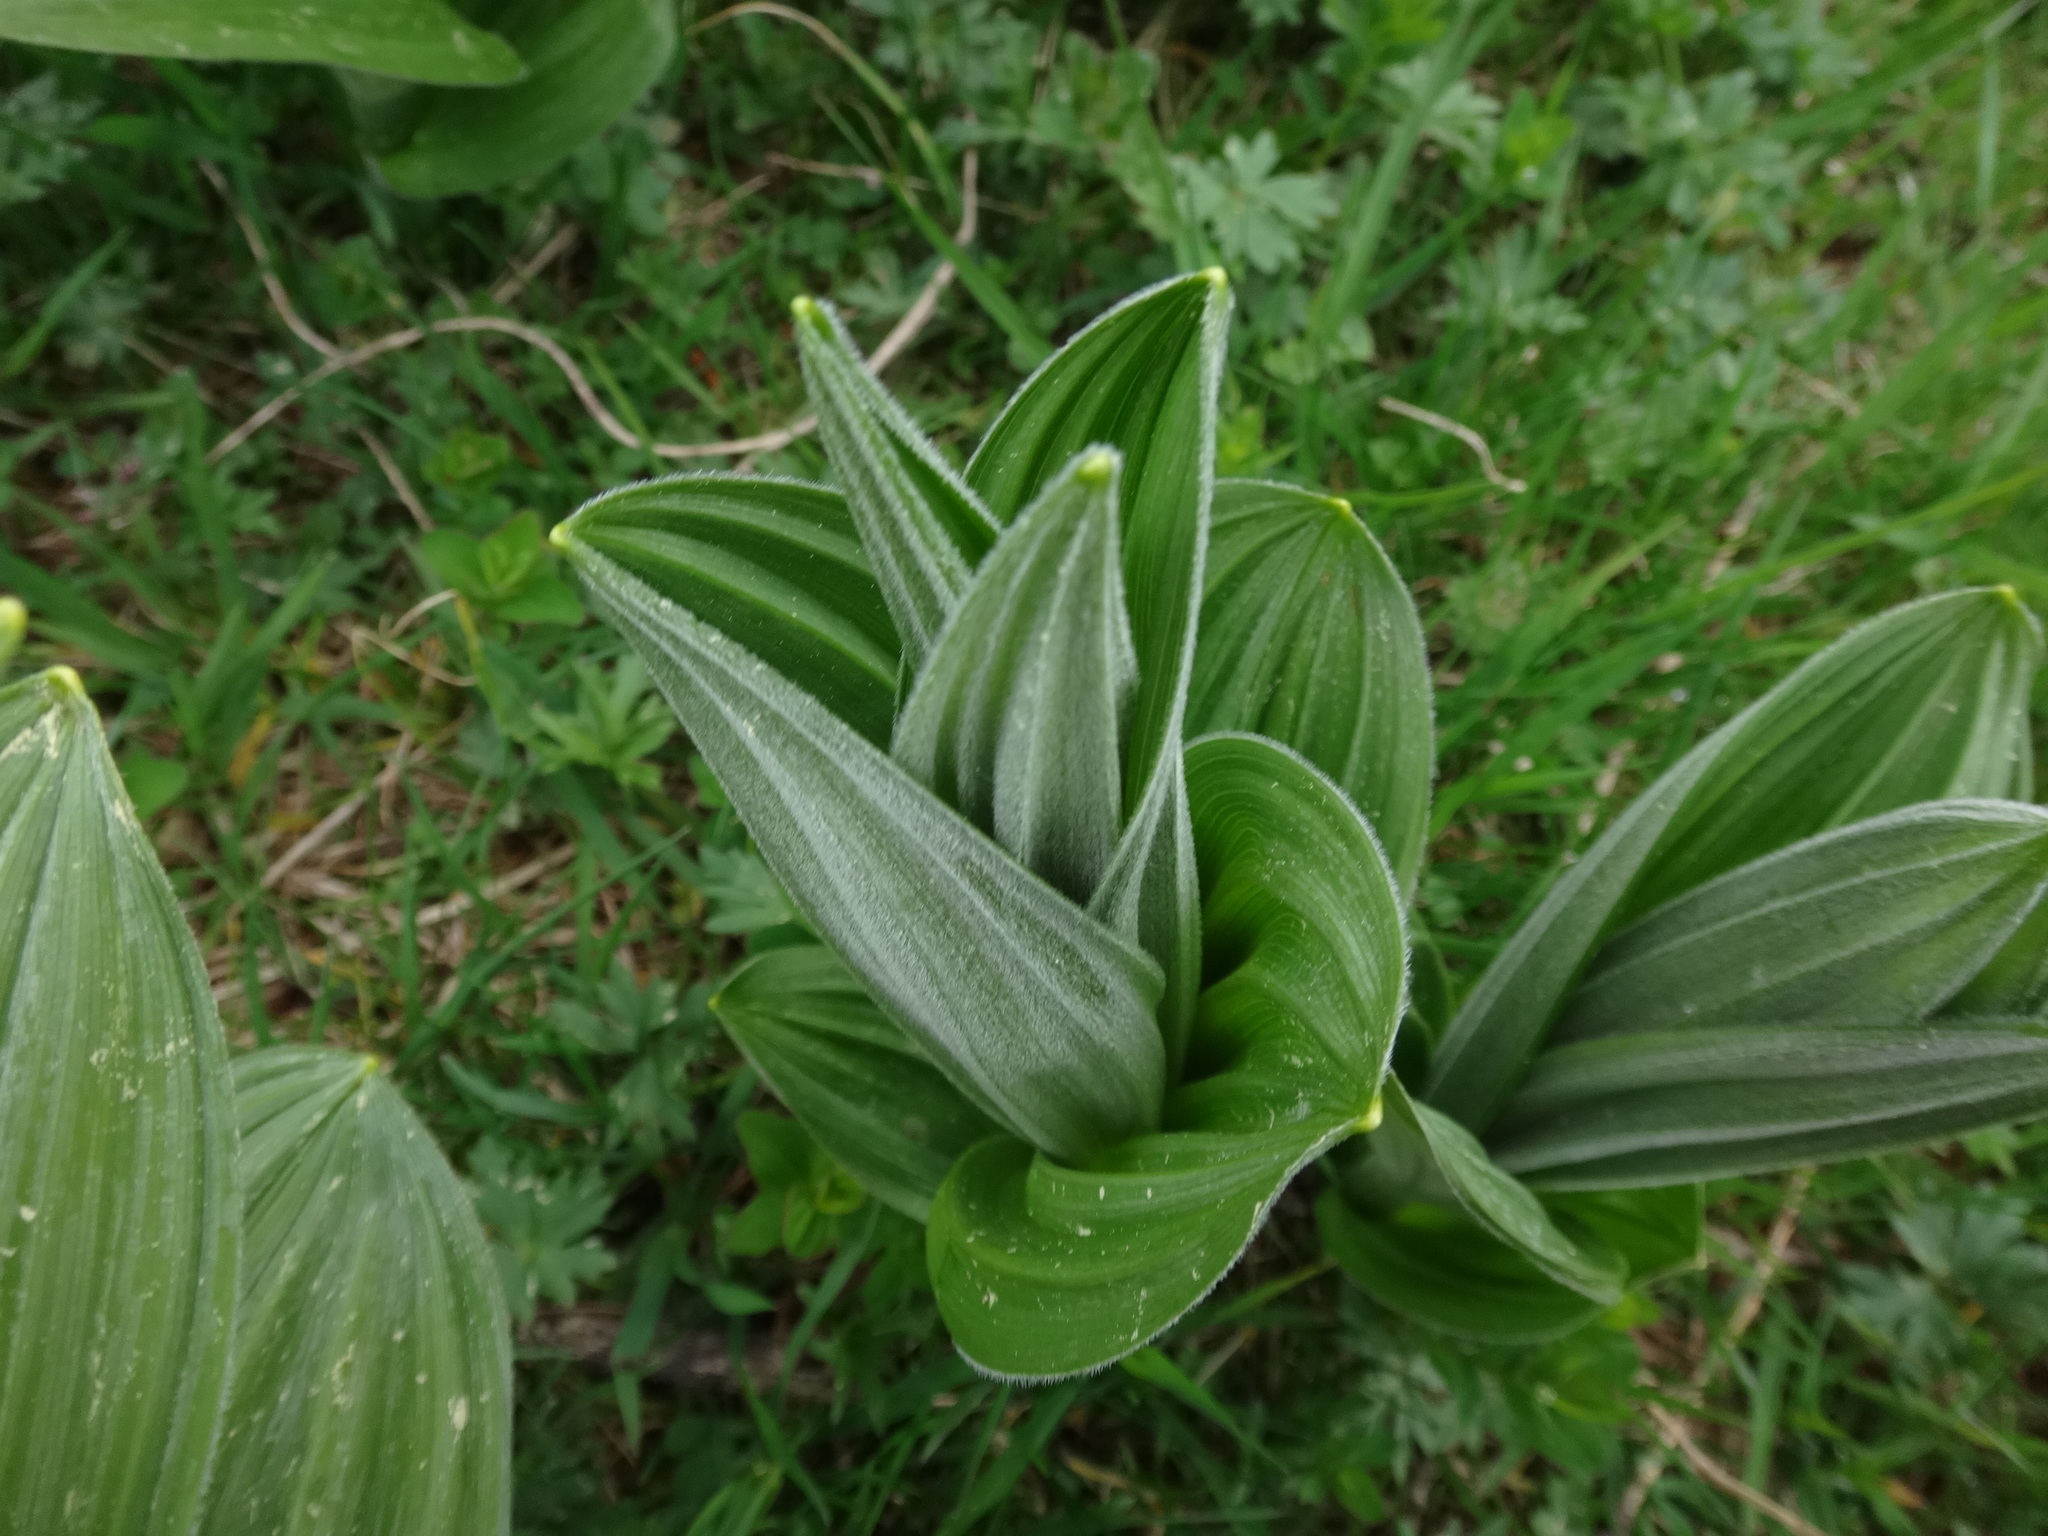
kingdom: Plantae
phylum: Tracheophyta
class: Liliopsida
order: Liliales
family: Melanthiaceae
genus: Veratrum
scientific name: Veratrum album
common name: White veratrum
